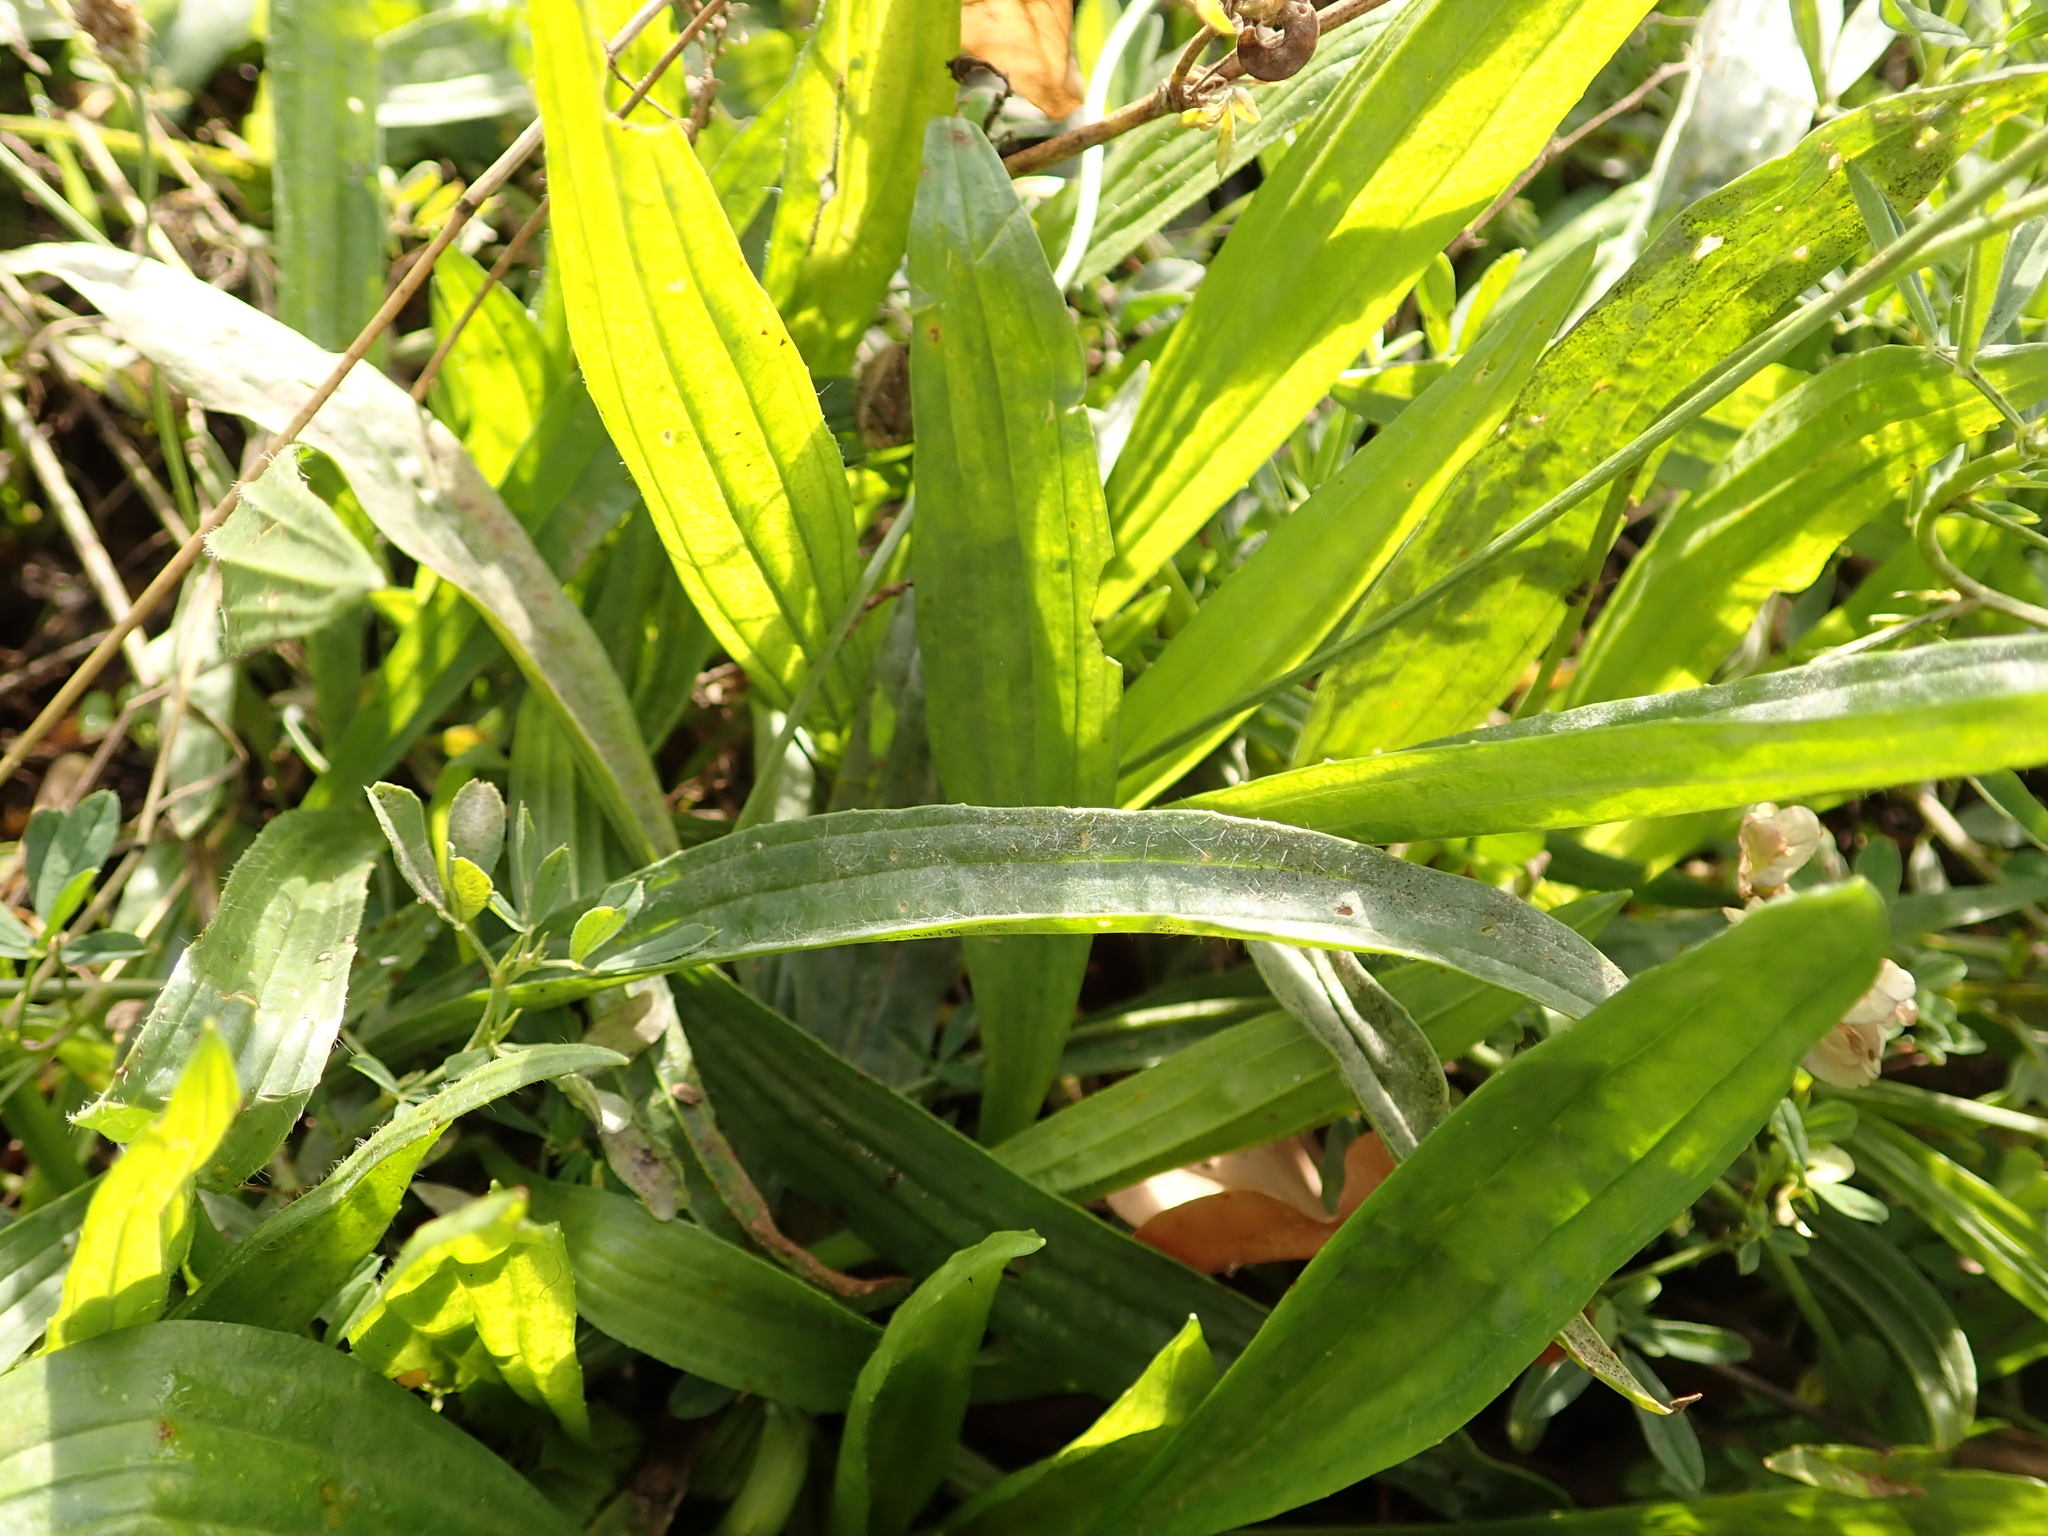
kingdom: Plantae
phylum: Tracheophyta
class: Magnoliopsida
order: Lamiales
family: Plantaginaceae
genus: Plantago
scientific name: Plantago lanceolata
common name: Ribwort plantain
